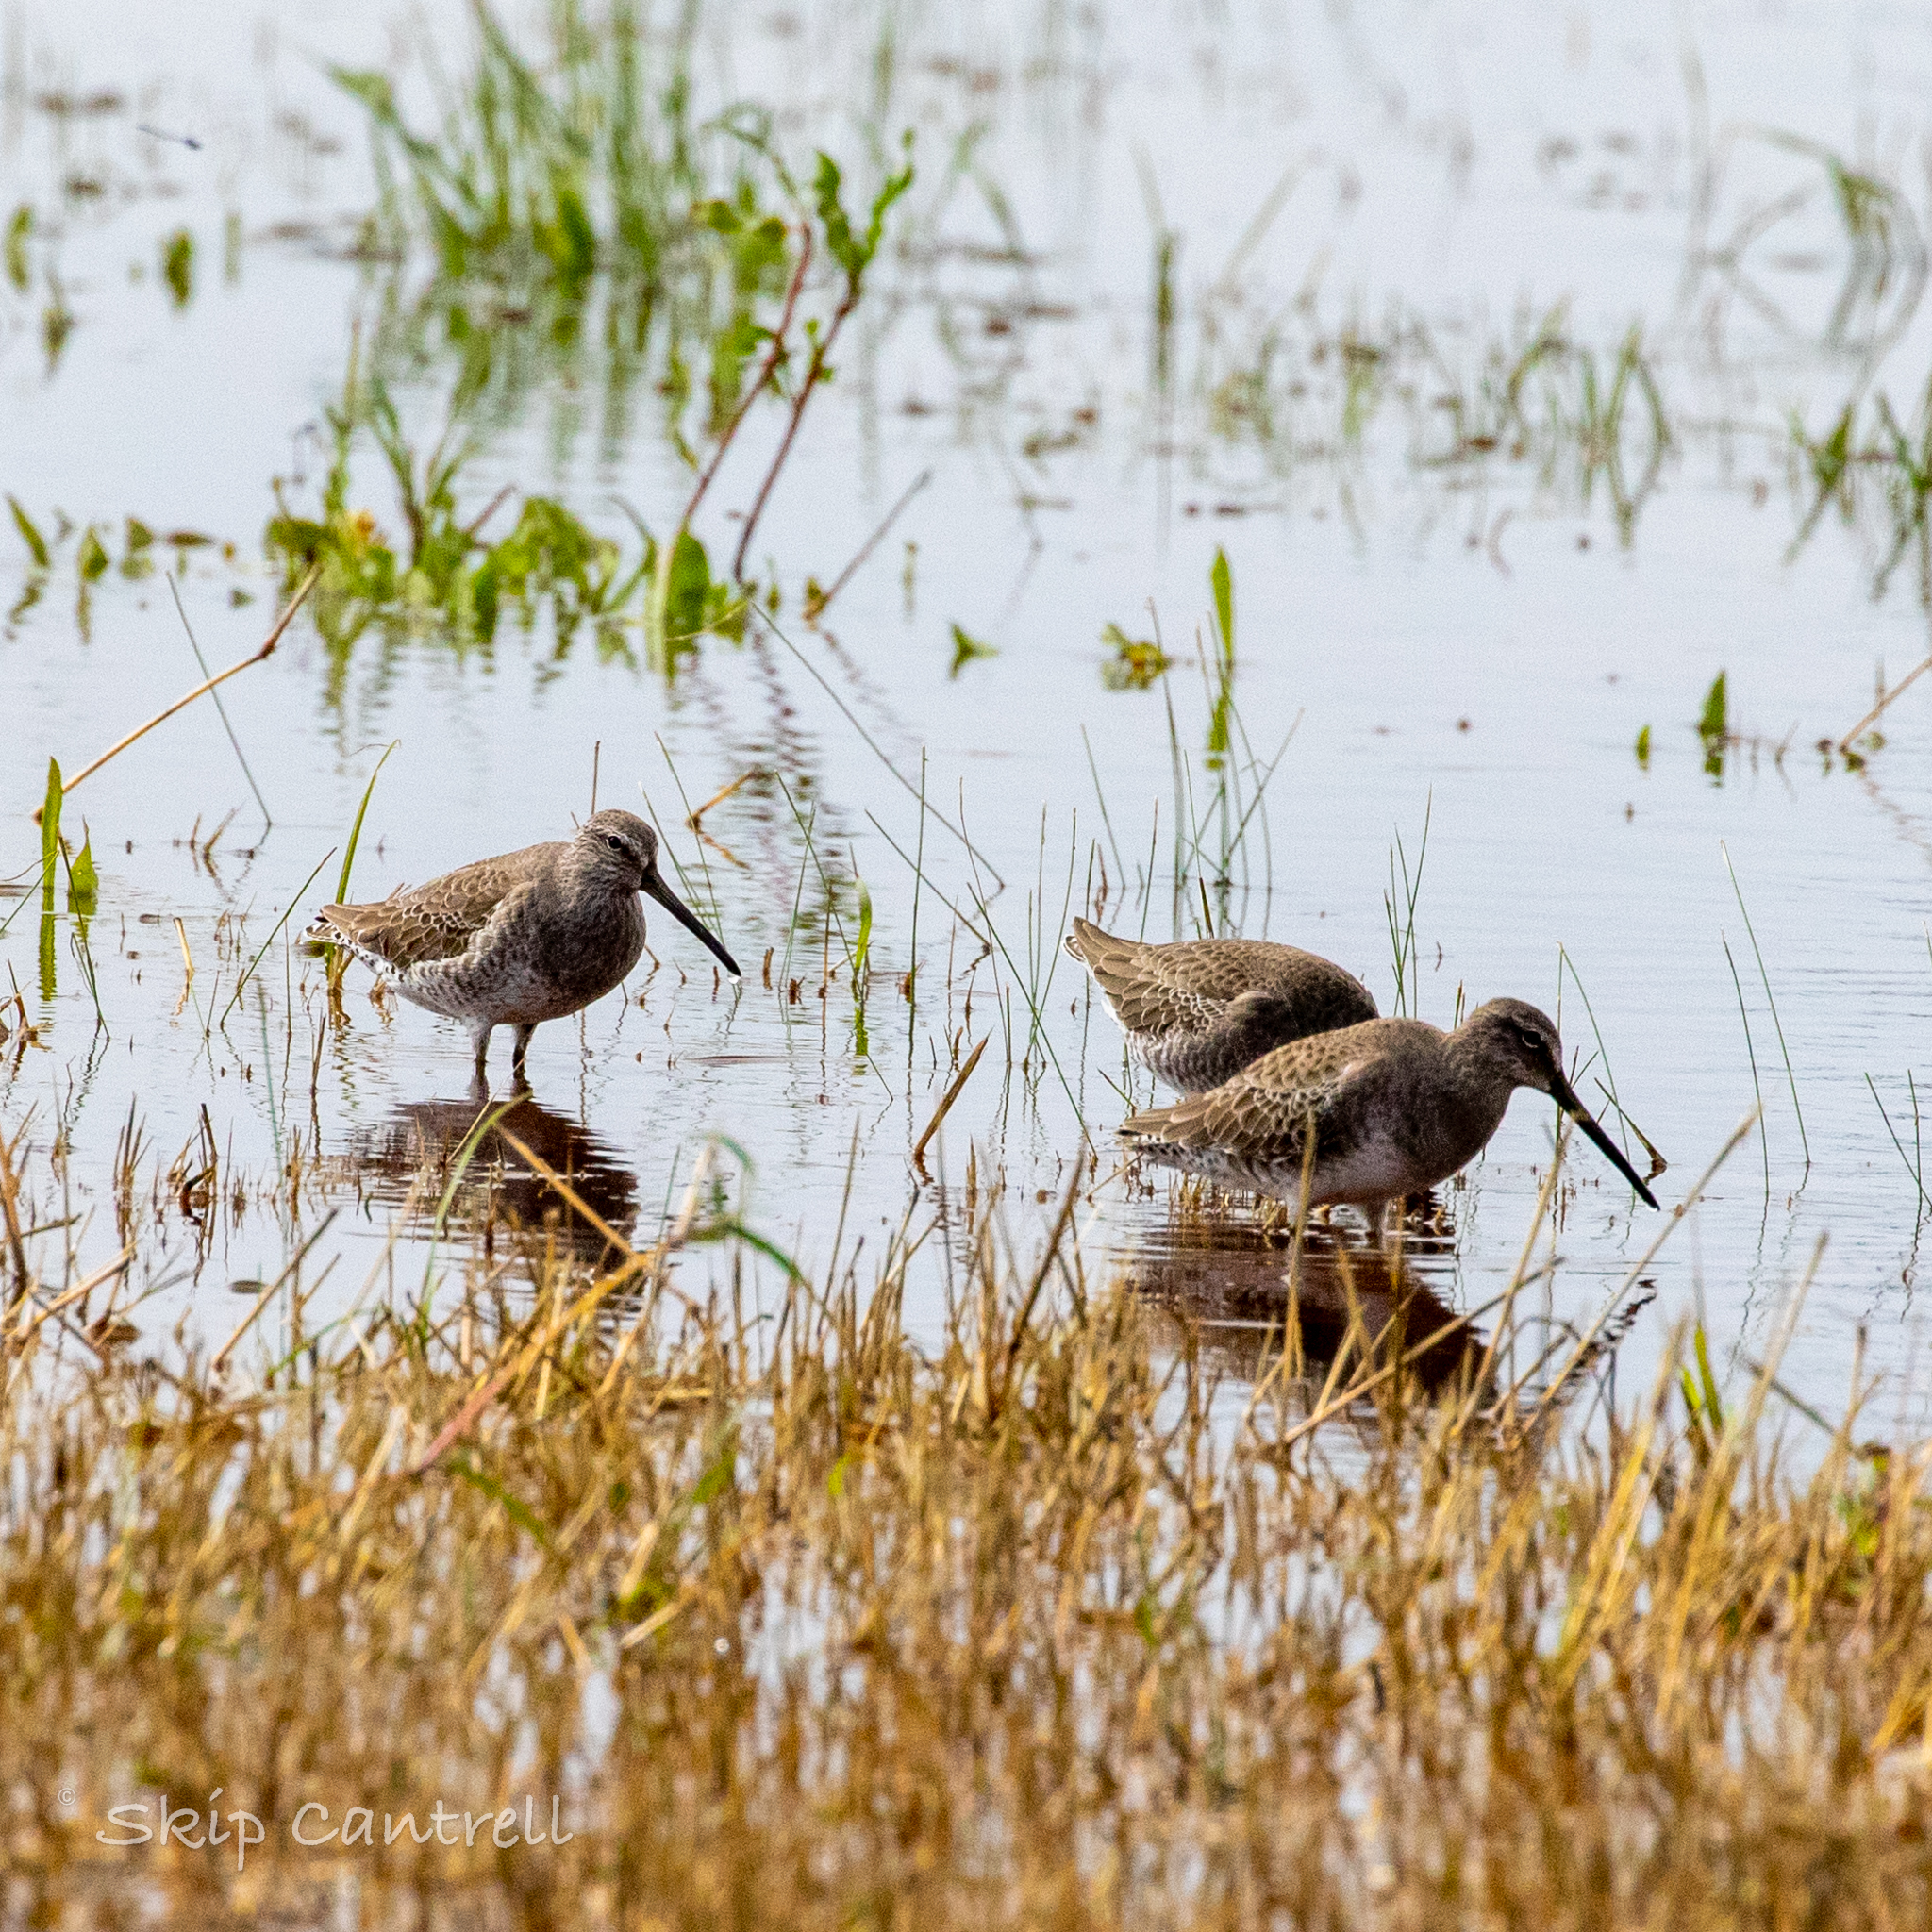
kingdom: Animalia
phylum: Chordata
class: Aves
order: Charadriiformes
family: Scolopacidae
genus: Limnodromus
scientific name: Limnodromus scolopaceus
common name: Long-billed dowitcher
